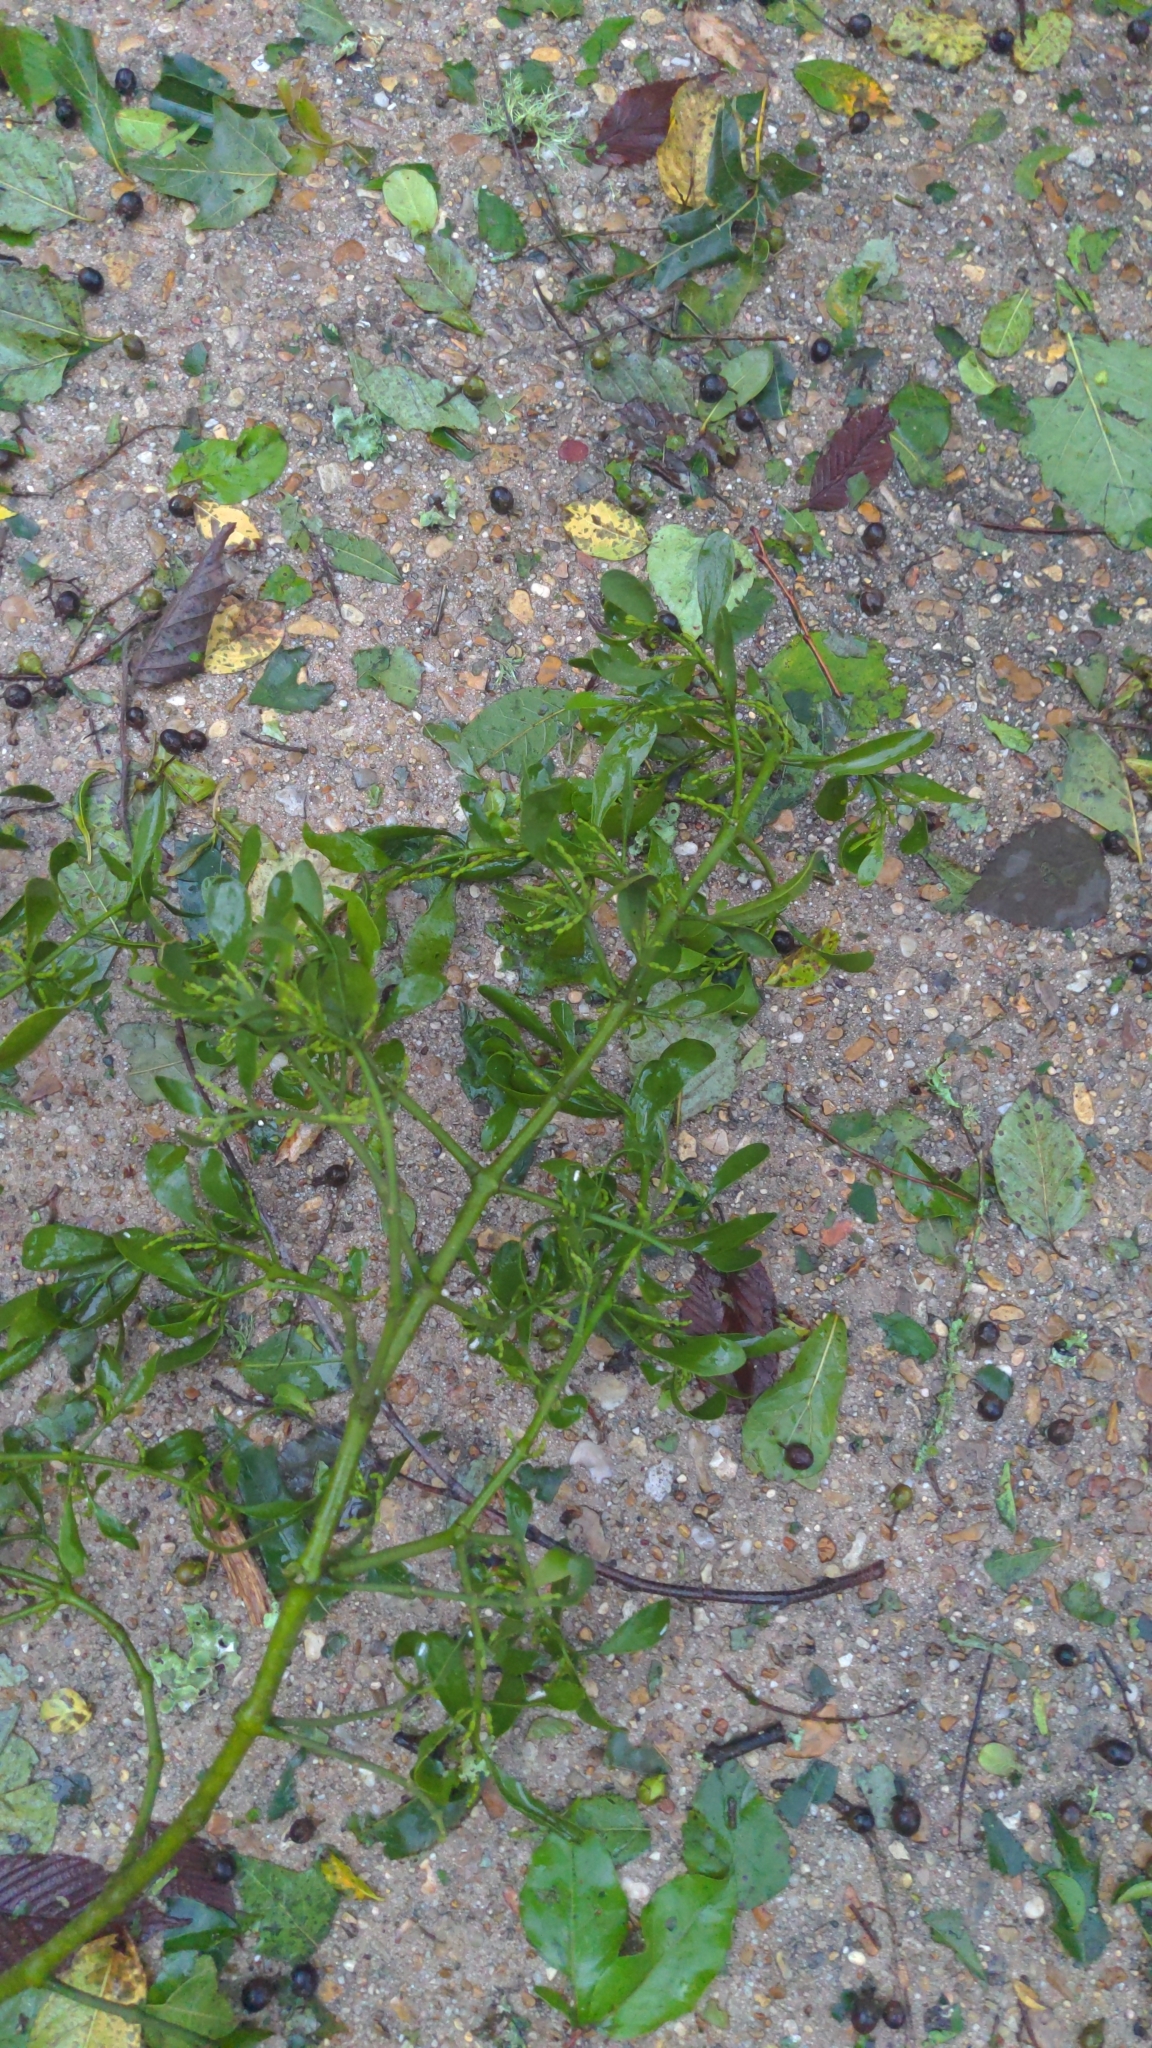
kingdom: Plantae
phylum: Tracheophyta
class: Magnoliopsida
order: Santalales
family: Viscaceae
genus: Phoradendron
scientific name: Phoradendron leucarpum
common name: Pacific mistletoe
